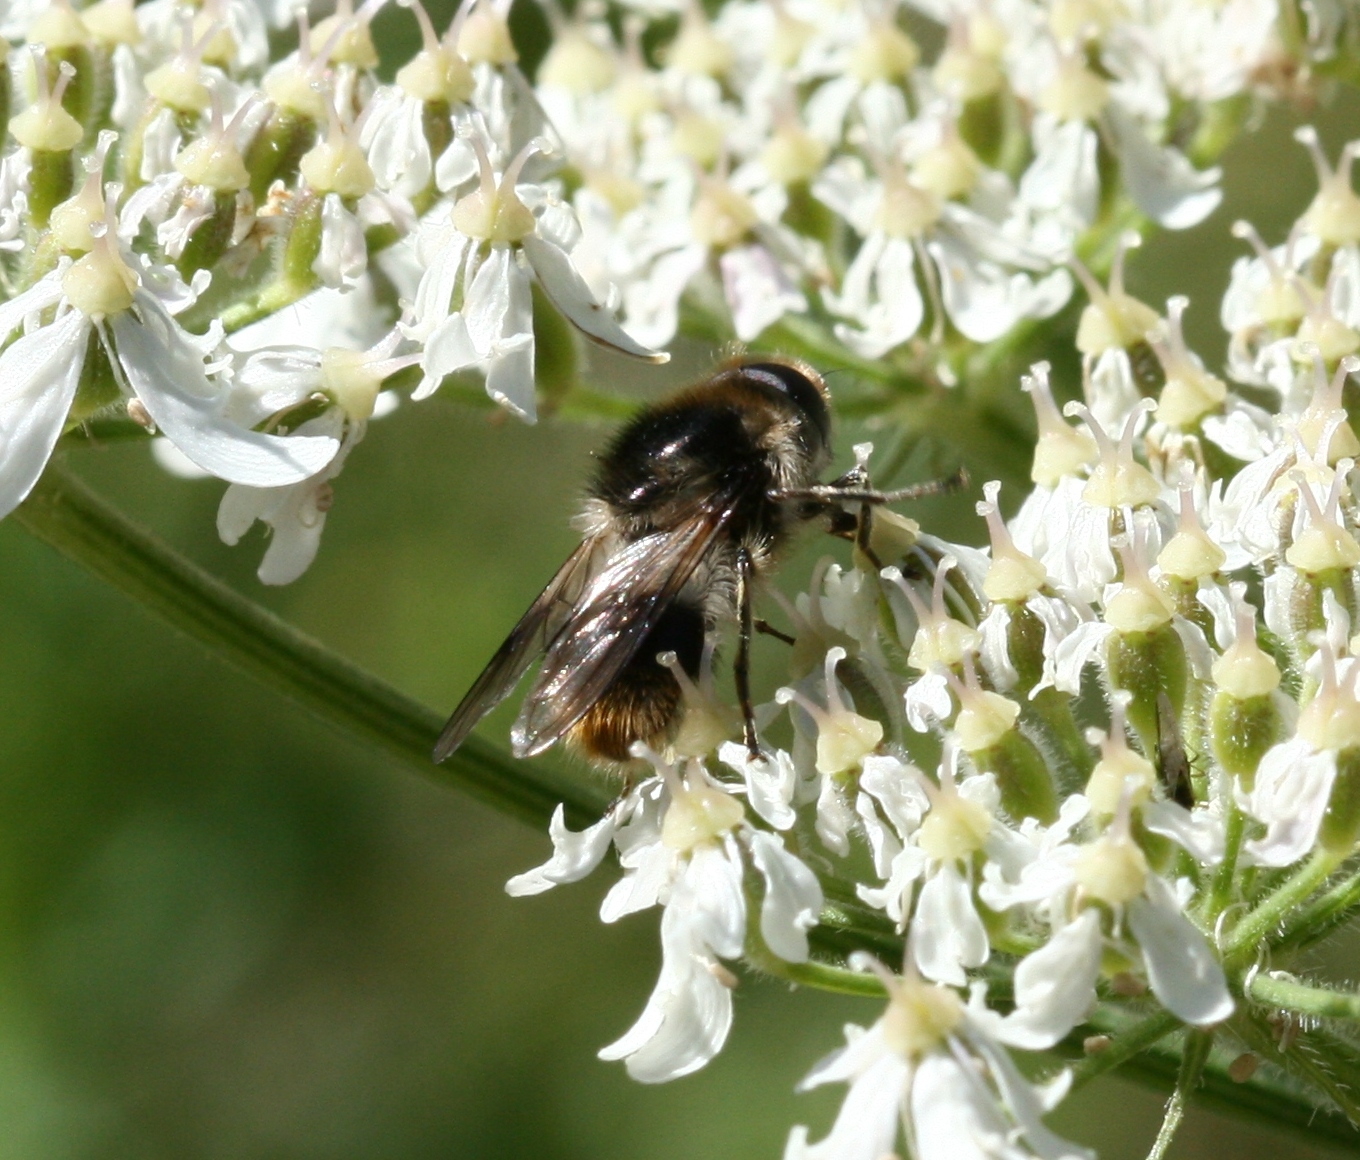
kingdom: Animalia
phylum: Arthropoda
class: Insecta
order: Diptera
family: Syrphidae
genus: Cheilosia
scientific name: Cheilosia illustrata
